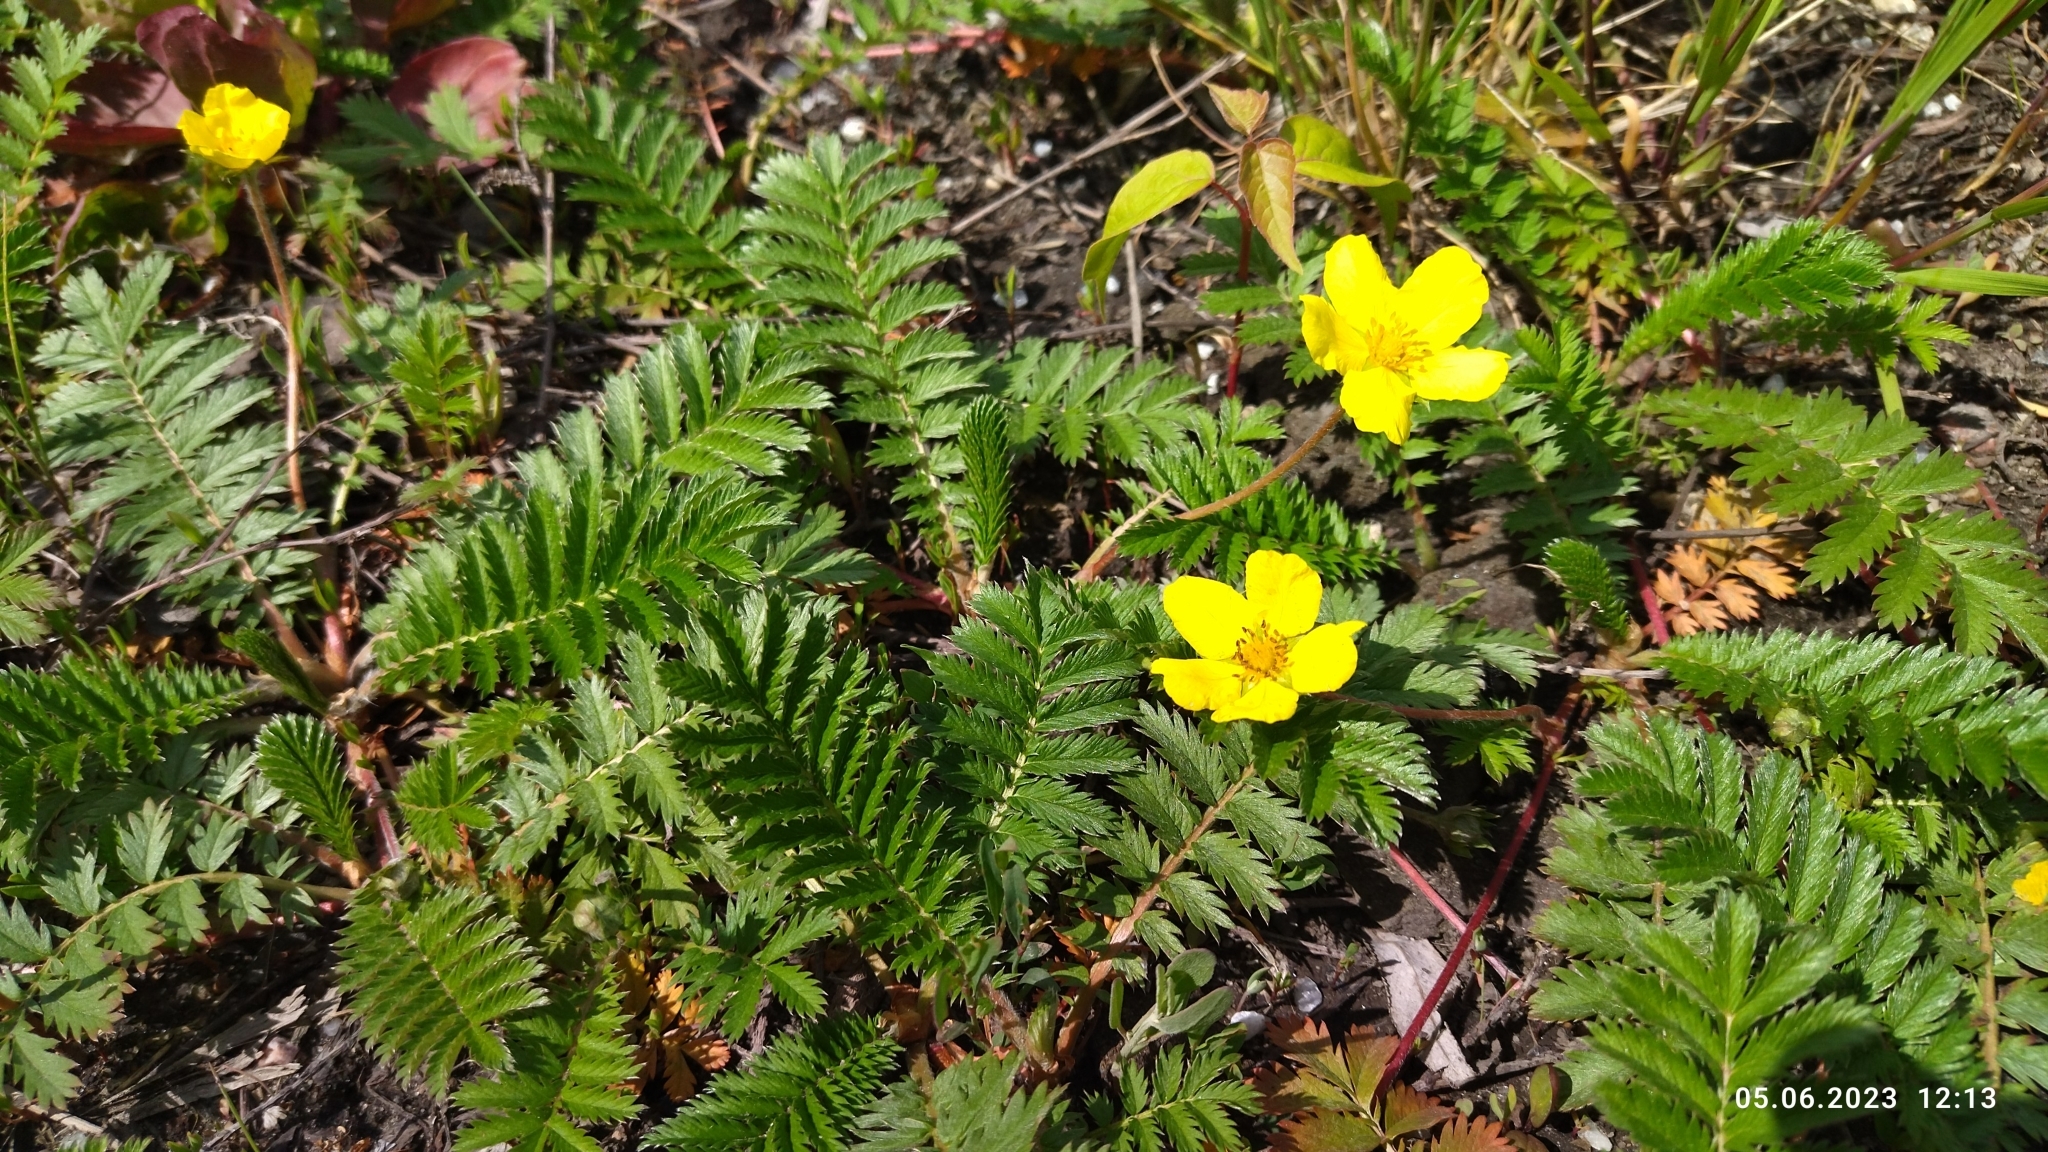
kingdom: Plantae
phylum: Tracheophyta
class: Magnoliopsida
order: Rosales
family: Rosaceae
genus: Argentina
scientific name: Argentina anserina
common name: Common silverweed
